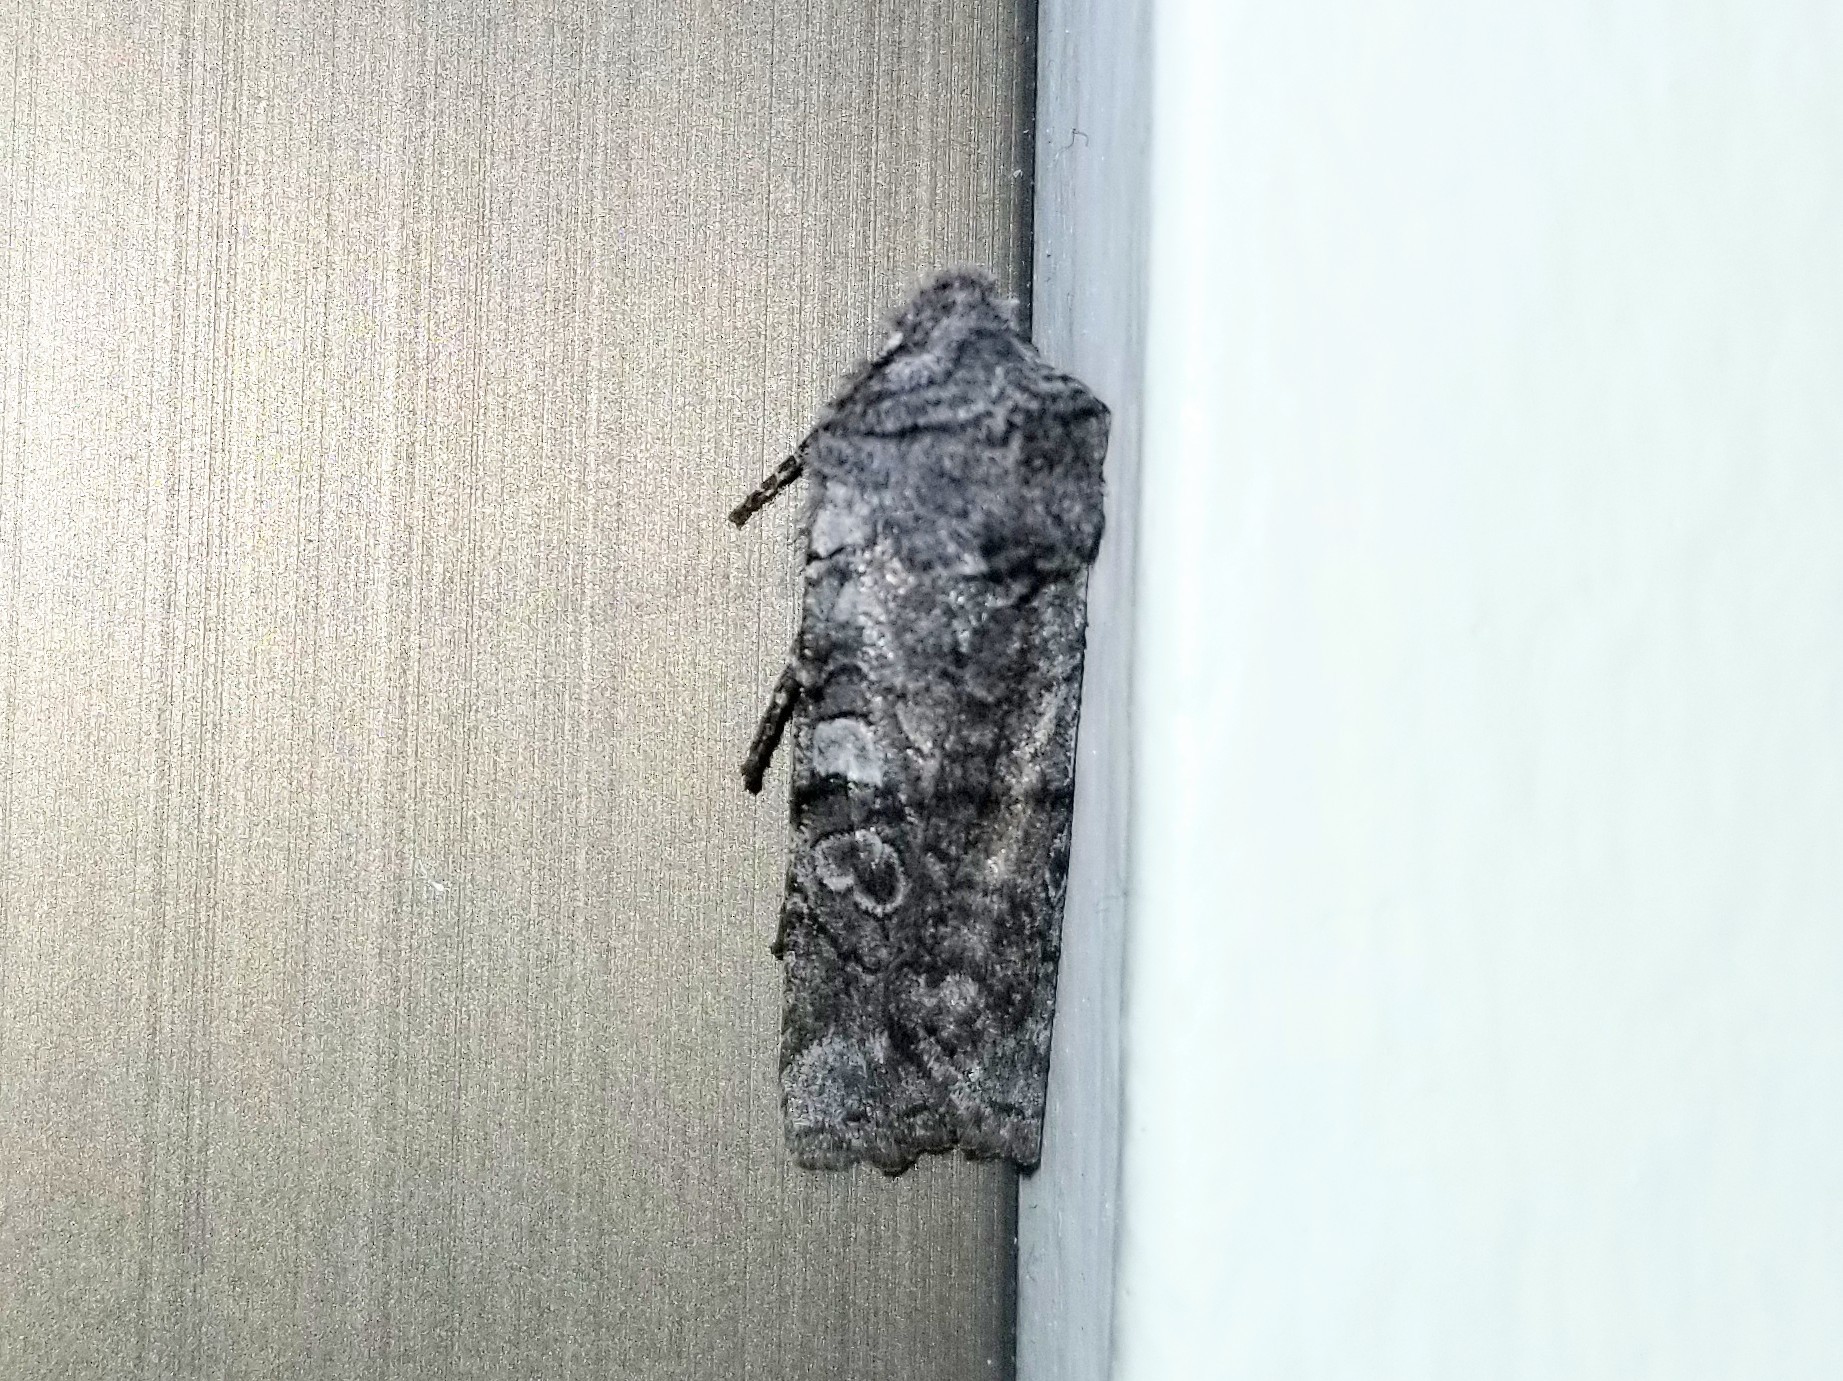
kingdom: Animalia
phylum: Arthropoda
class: Insecta
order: Lepidoptera
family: Noctuidae
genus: Litholomia
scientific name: Litholomia napaea
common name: False pinion moth
